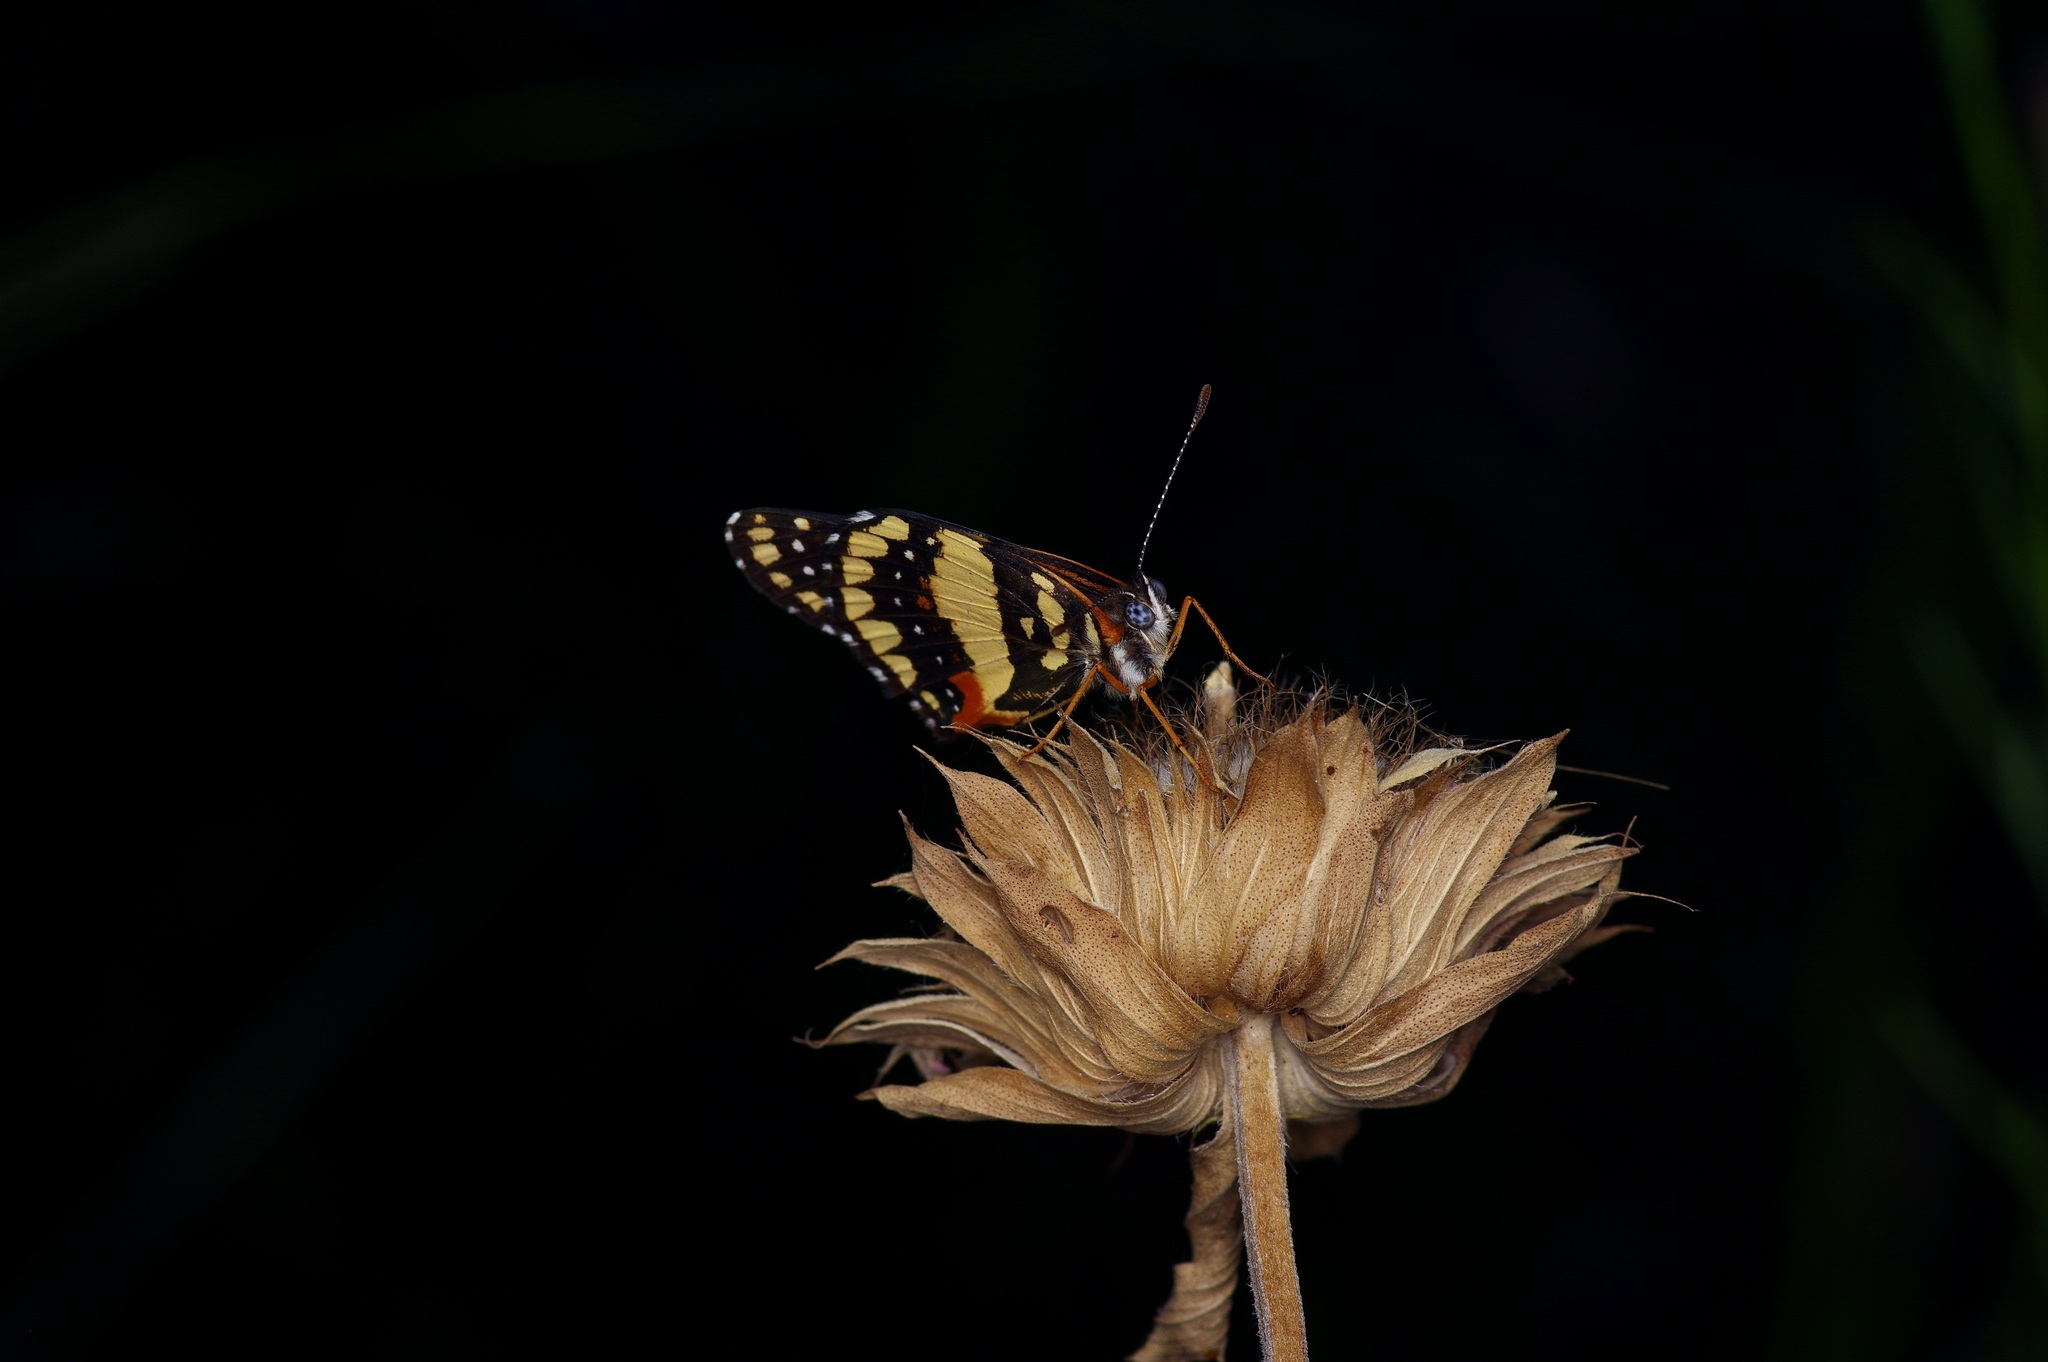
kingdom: Animalia
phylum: Arthropoda
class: Insecta
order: Lepidoptera
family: Nymphalidae
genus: Chlosyne
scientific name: Chlosyne lacinia
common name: Bordered patch
